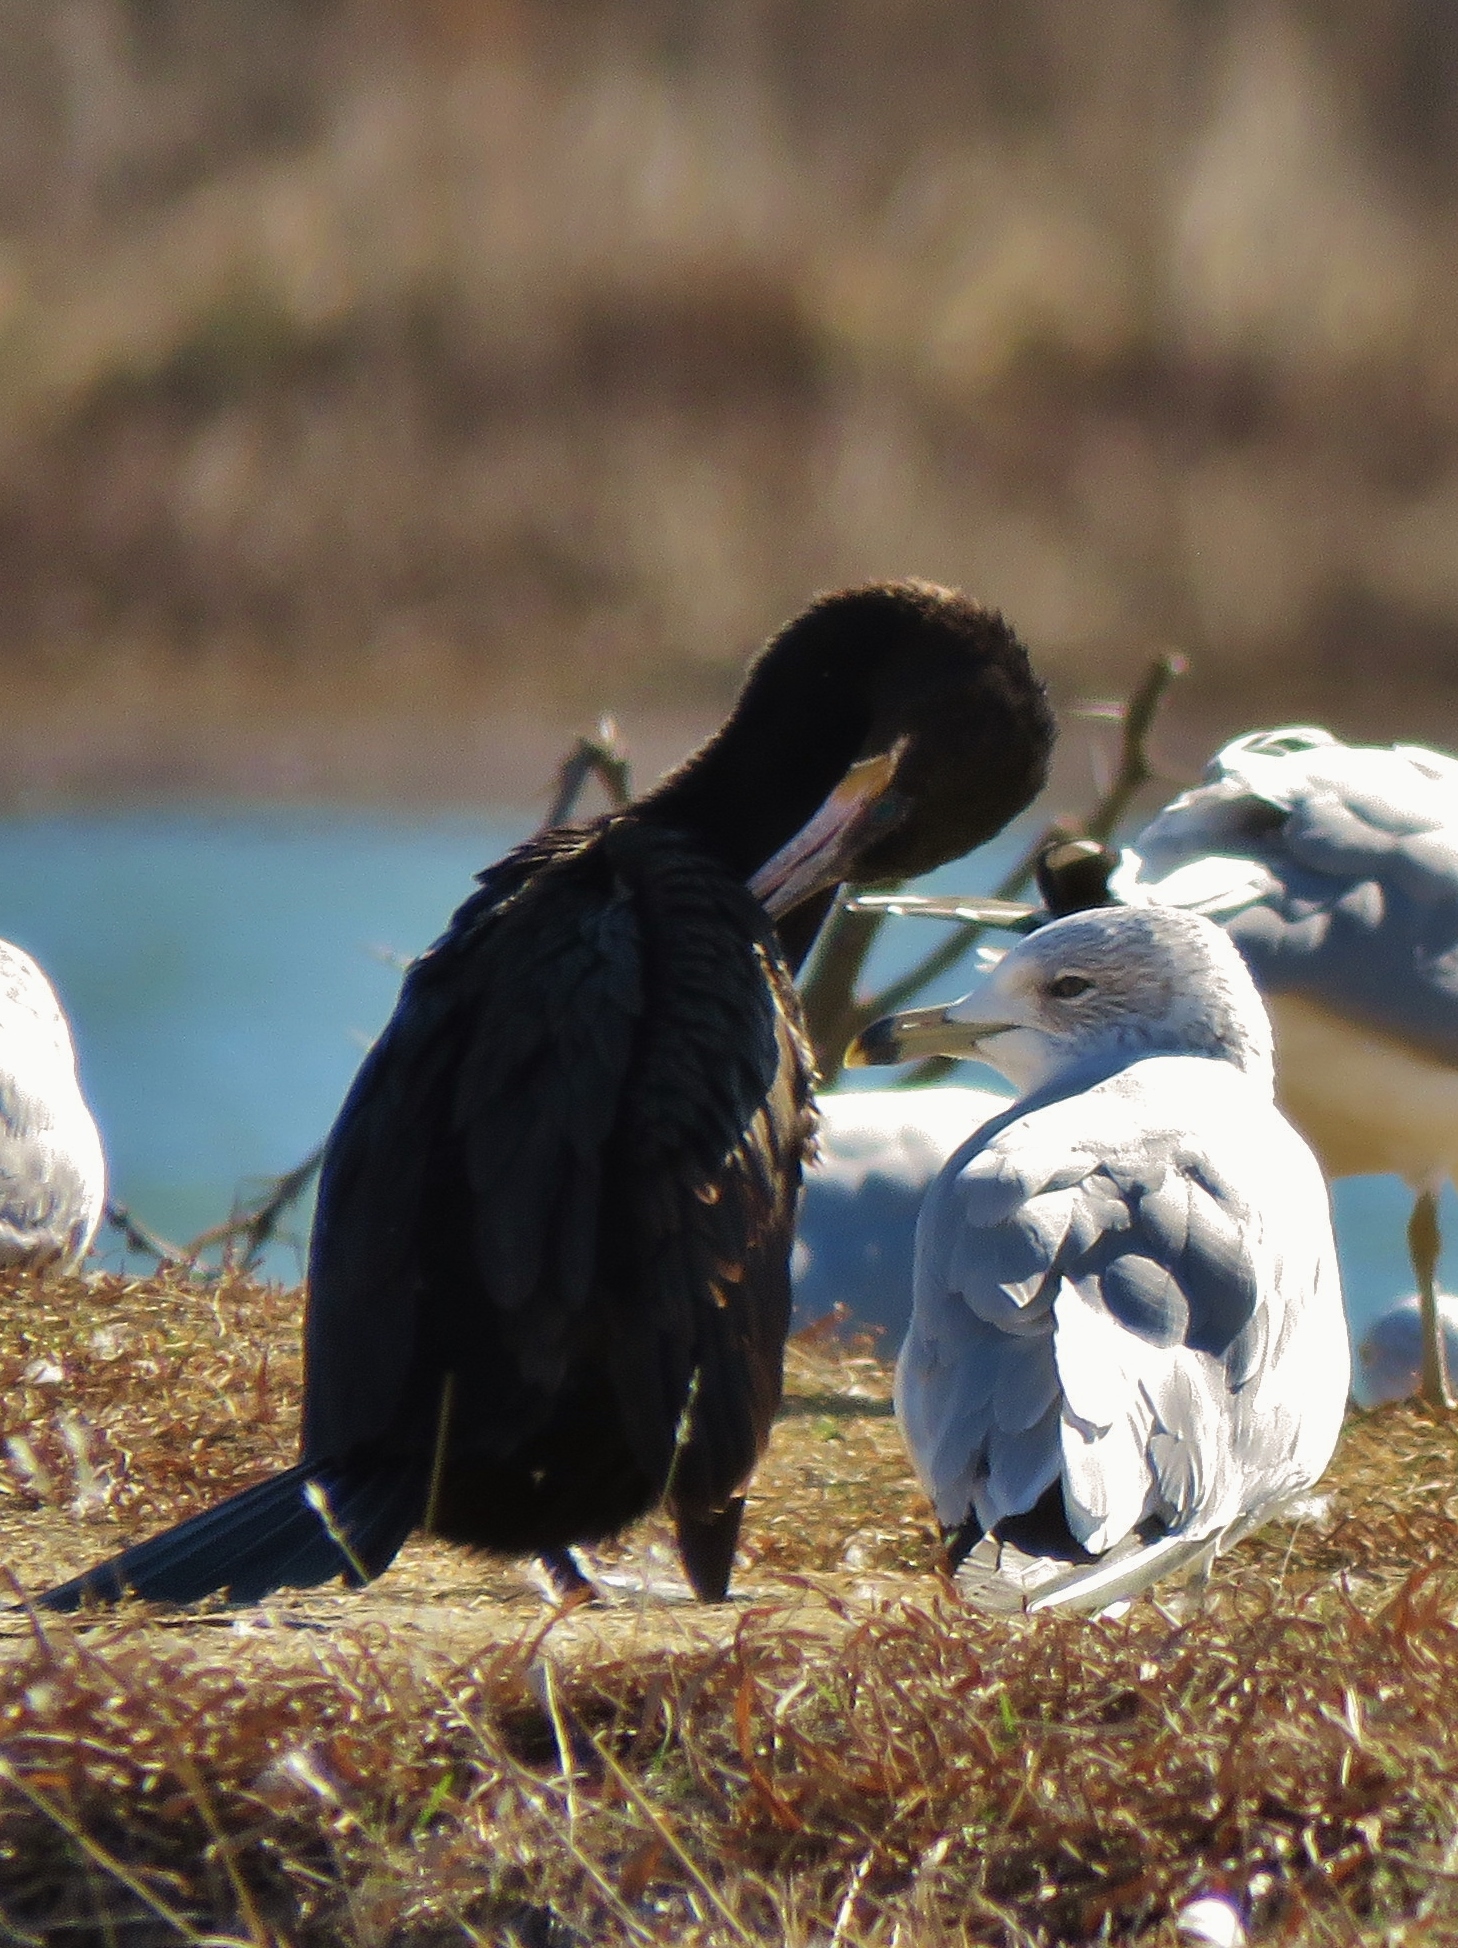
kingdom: Animalia
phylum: Chordata
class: Aves
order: Suliformes
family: Phalacrocoracidae
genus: Phalacrocorax
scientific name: Phalacrocorax brasilianus
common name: Neotropic cormorant
